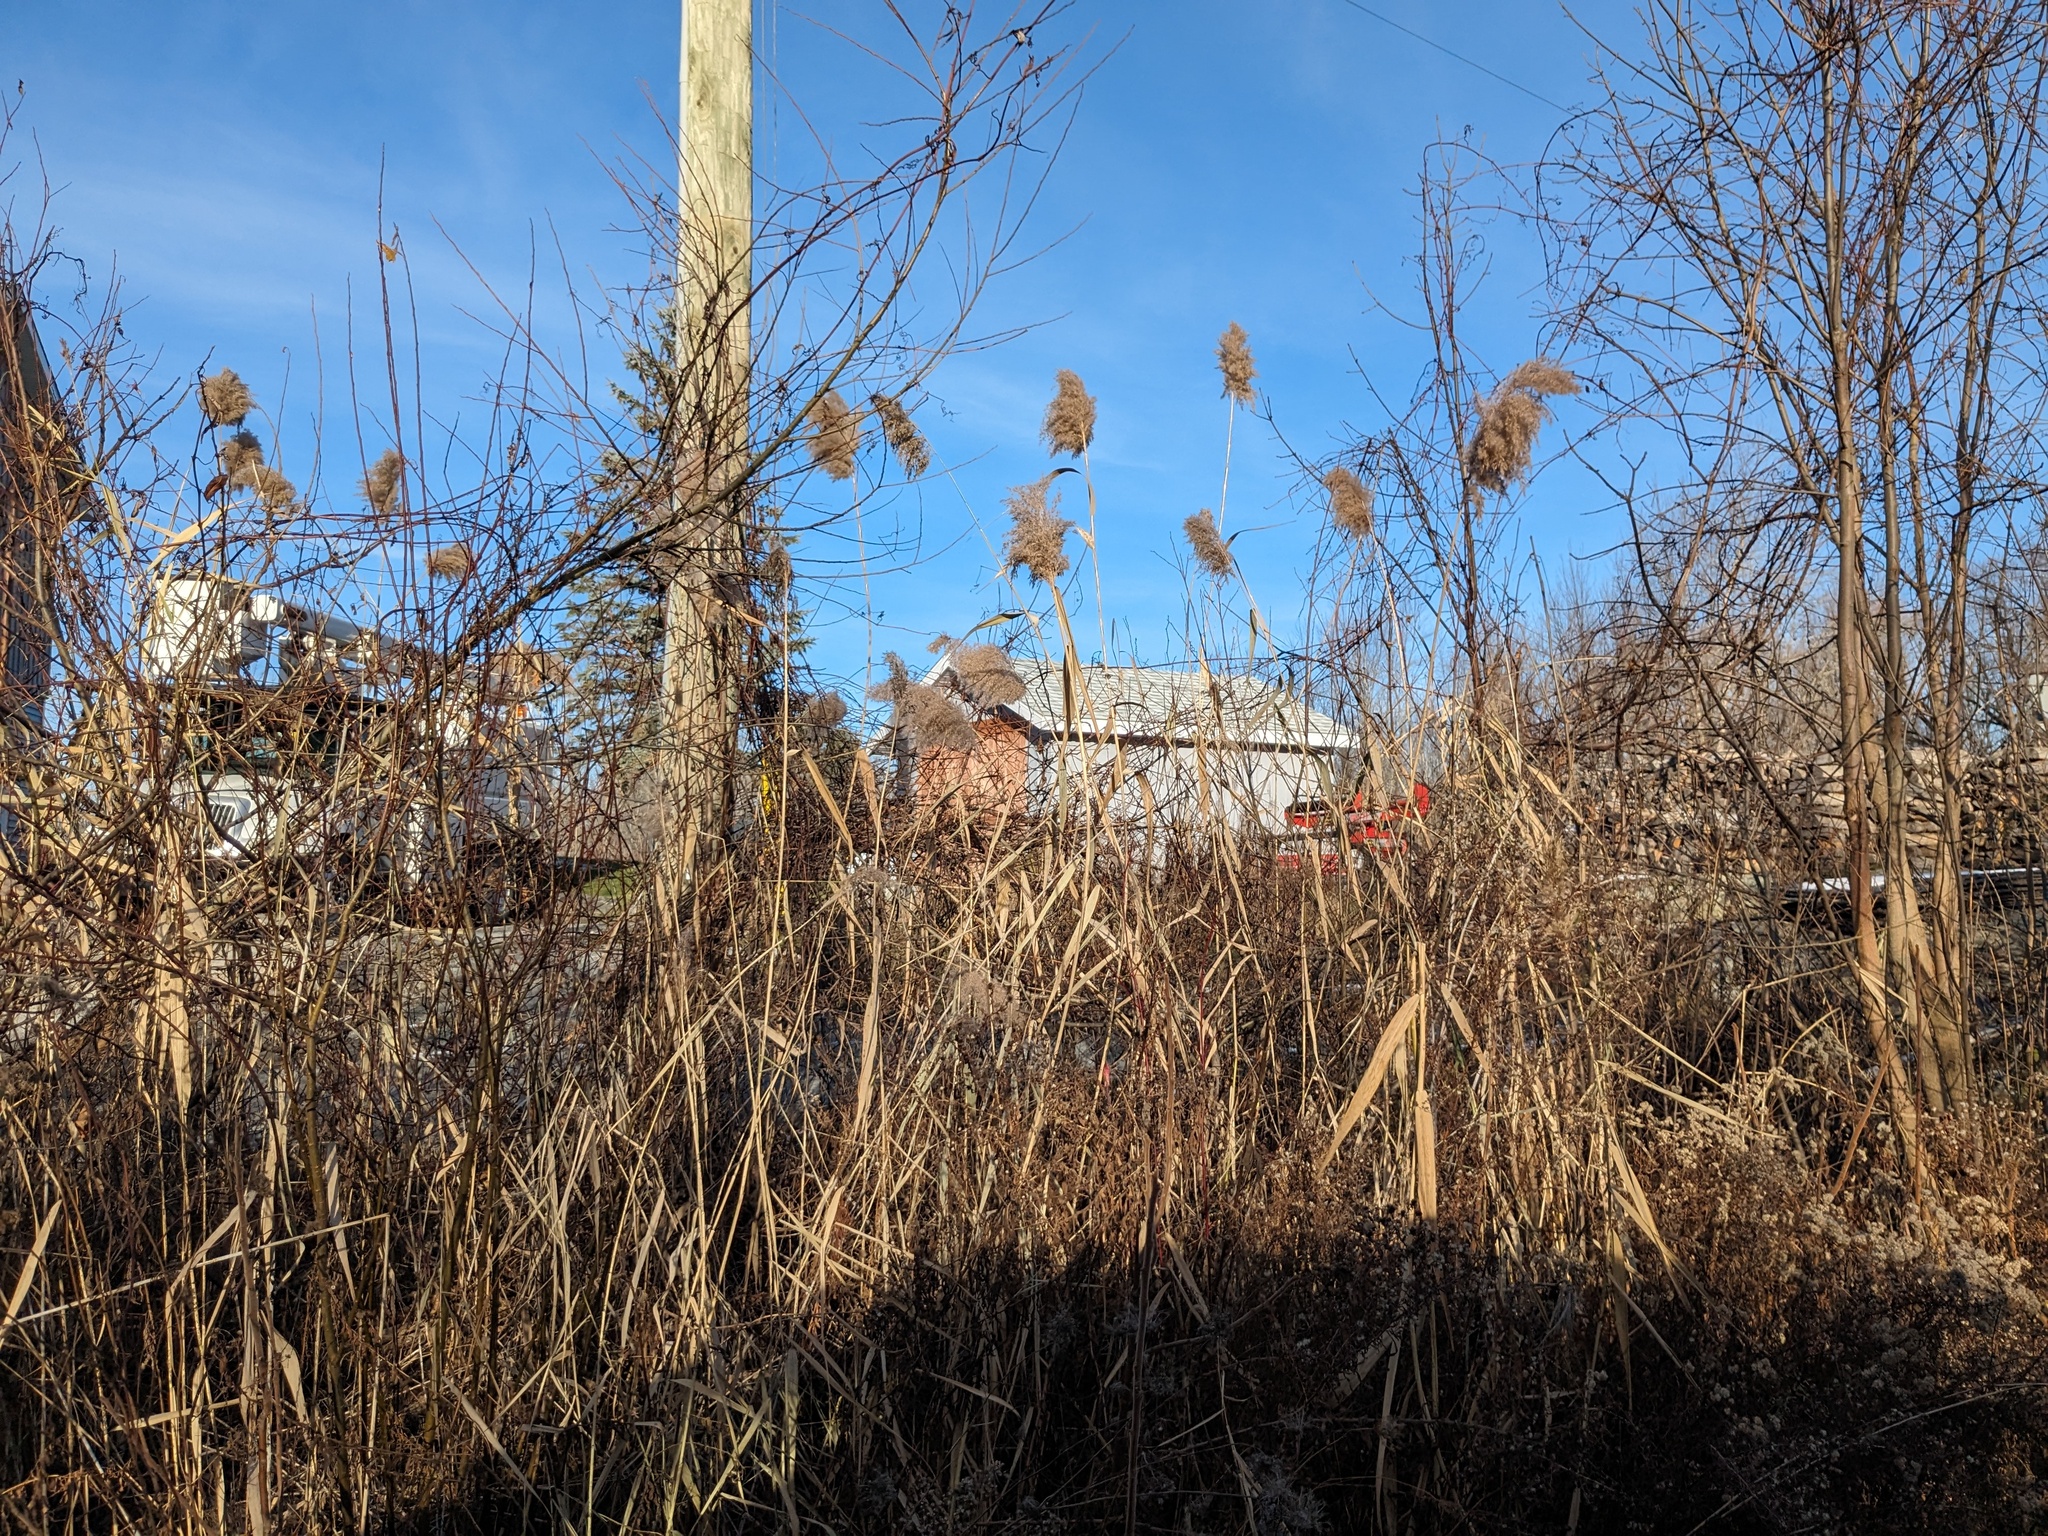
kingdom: Plantae
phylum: Tracheophyta
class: Liliopsida
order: Poales
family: Poaceae
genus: Phragmites
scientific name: Phragmites australis
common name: Common reed
